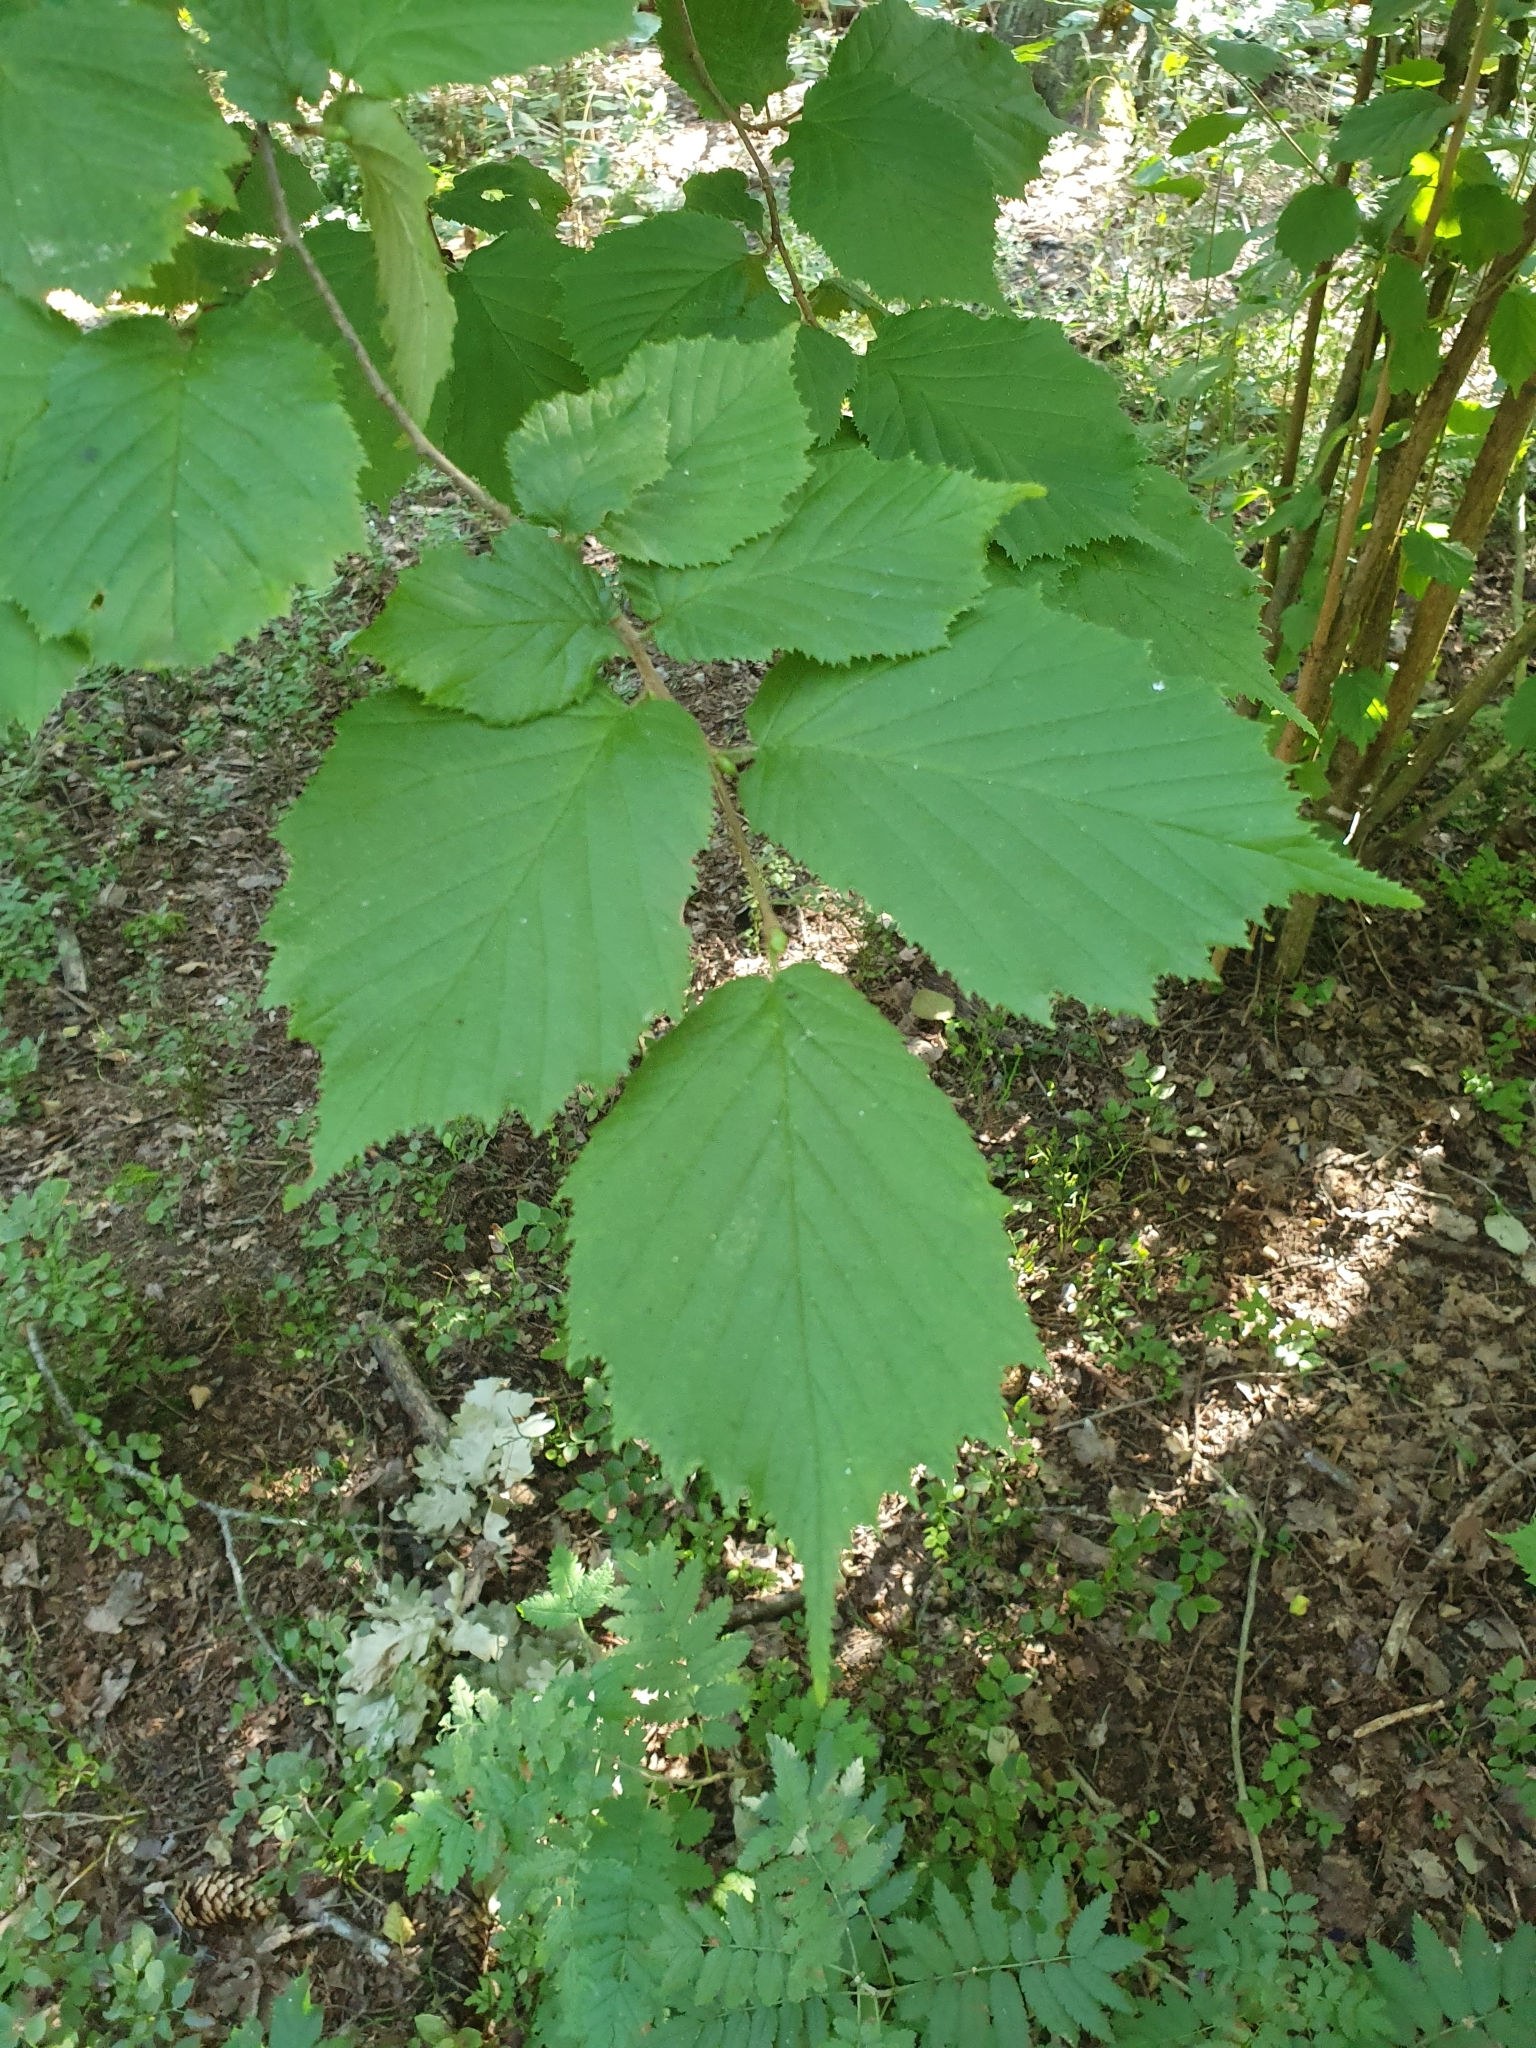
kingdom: Plantae
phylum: Tracheophyta
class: Magnoliopsida
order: Fagales
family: Betulaceae
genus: Corylus
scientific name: Corylus avellana
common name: European hazel
